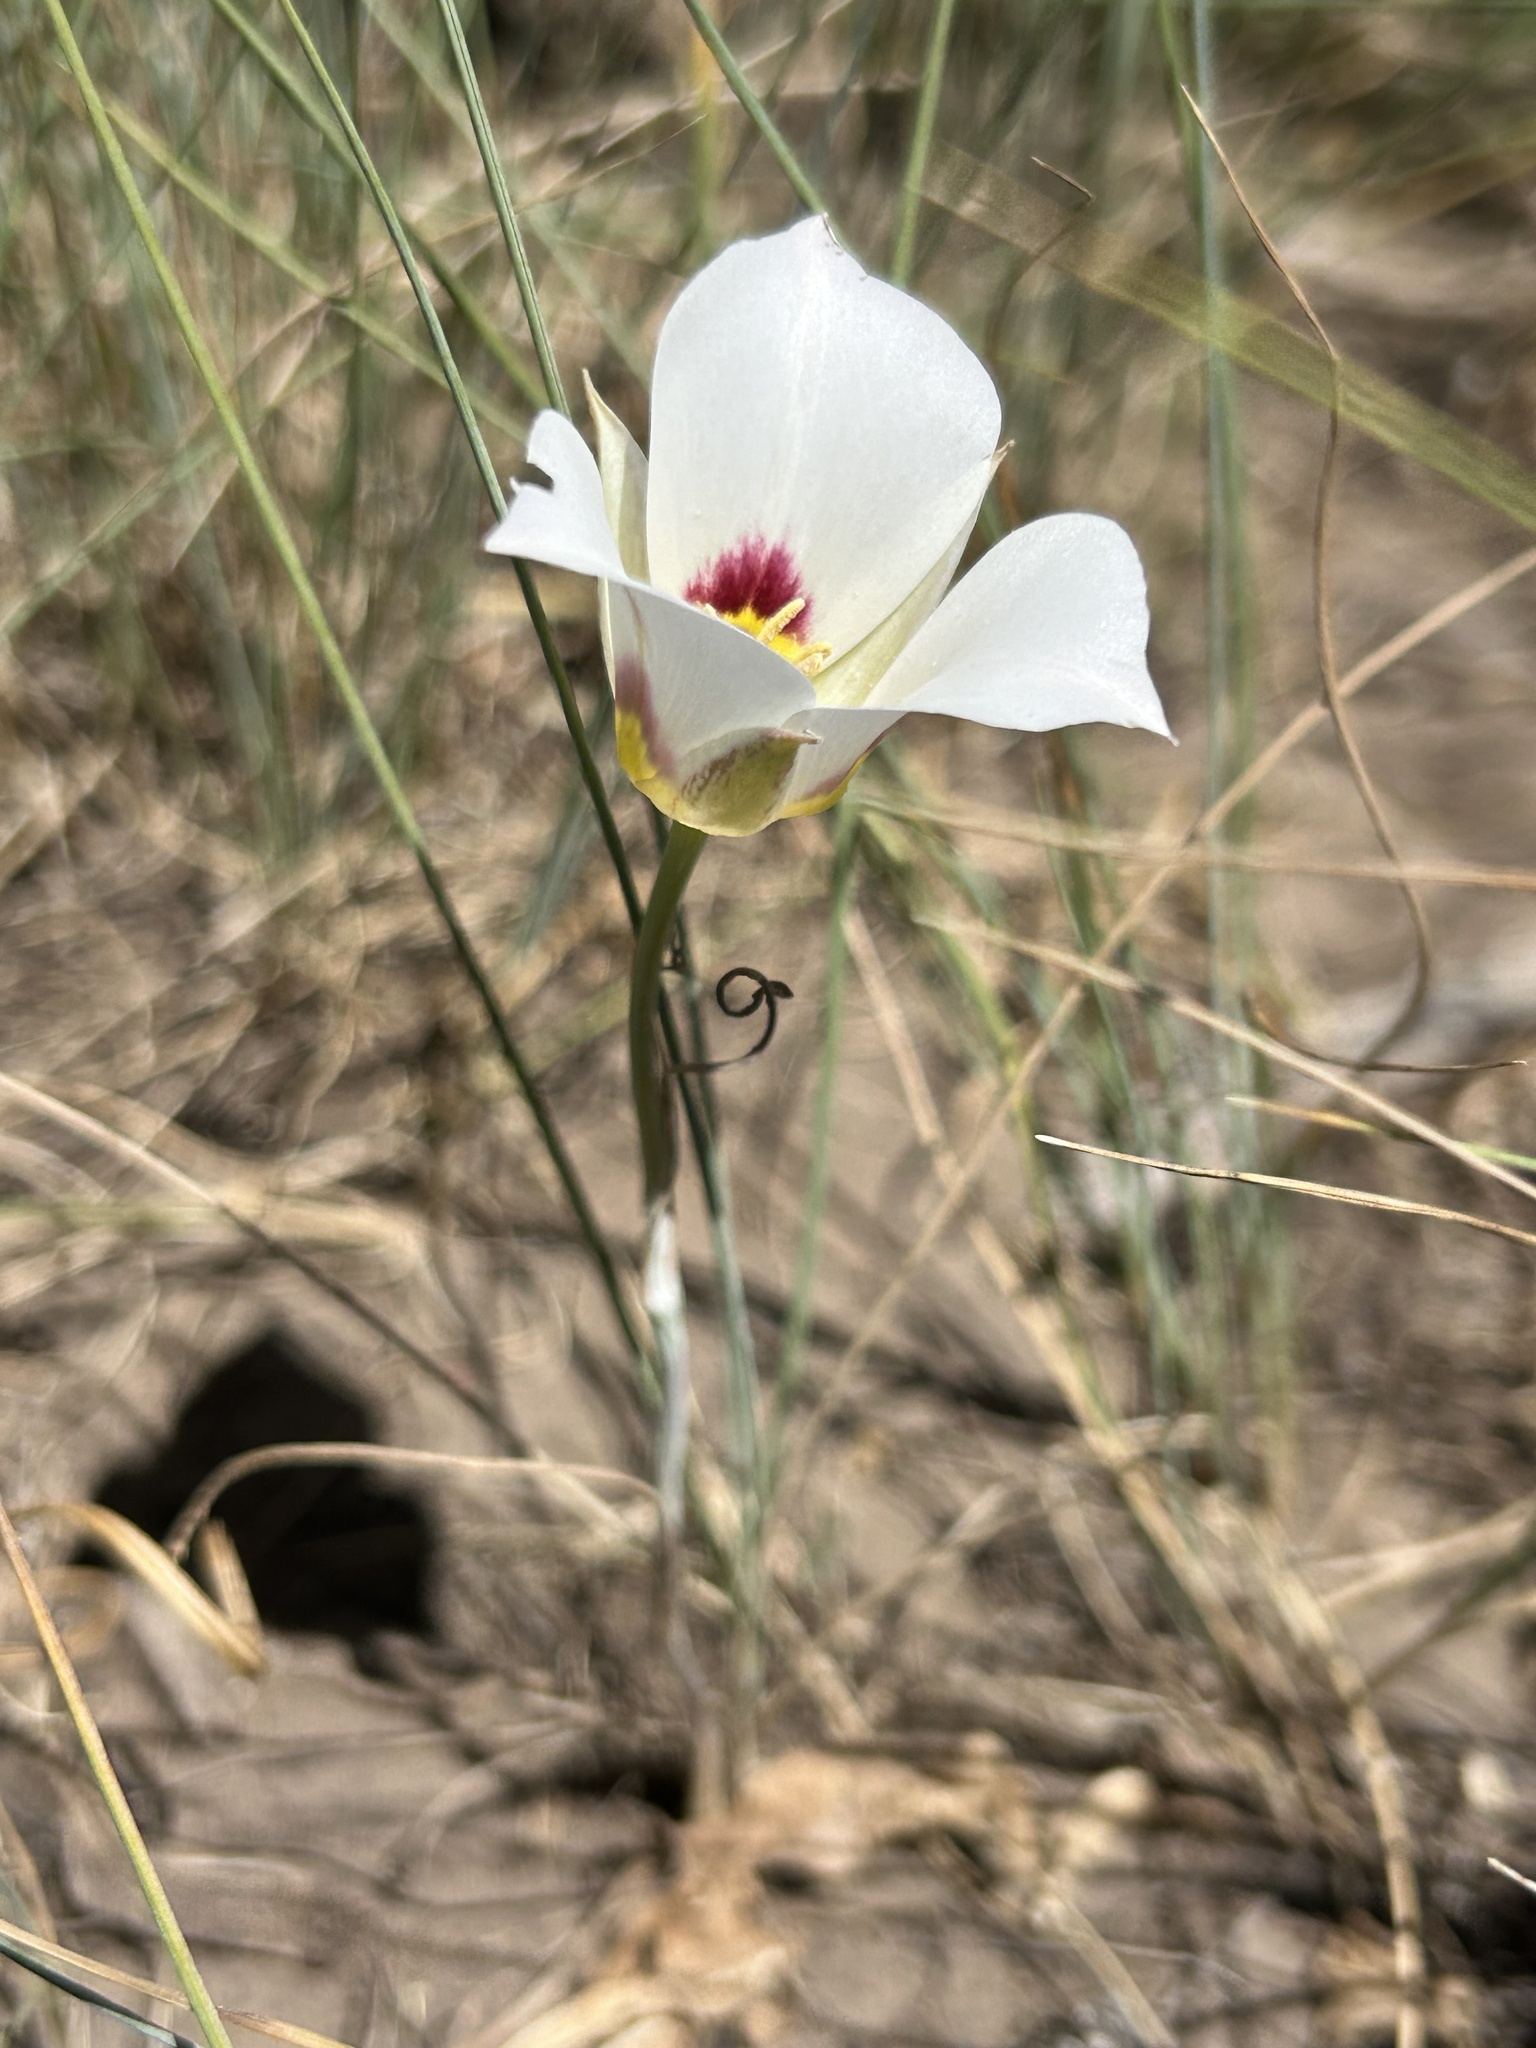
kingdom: Plantae
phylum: Tracheophyta
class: Liliopsida
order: Liliales
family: Liliaceae
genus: Calochortus
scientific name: Calochortus nuttallii
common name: Sego-lily
